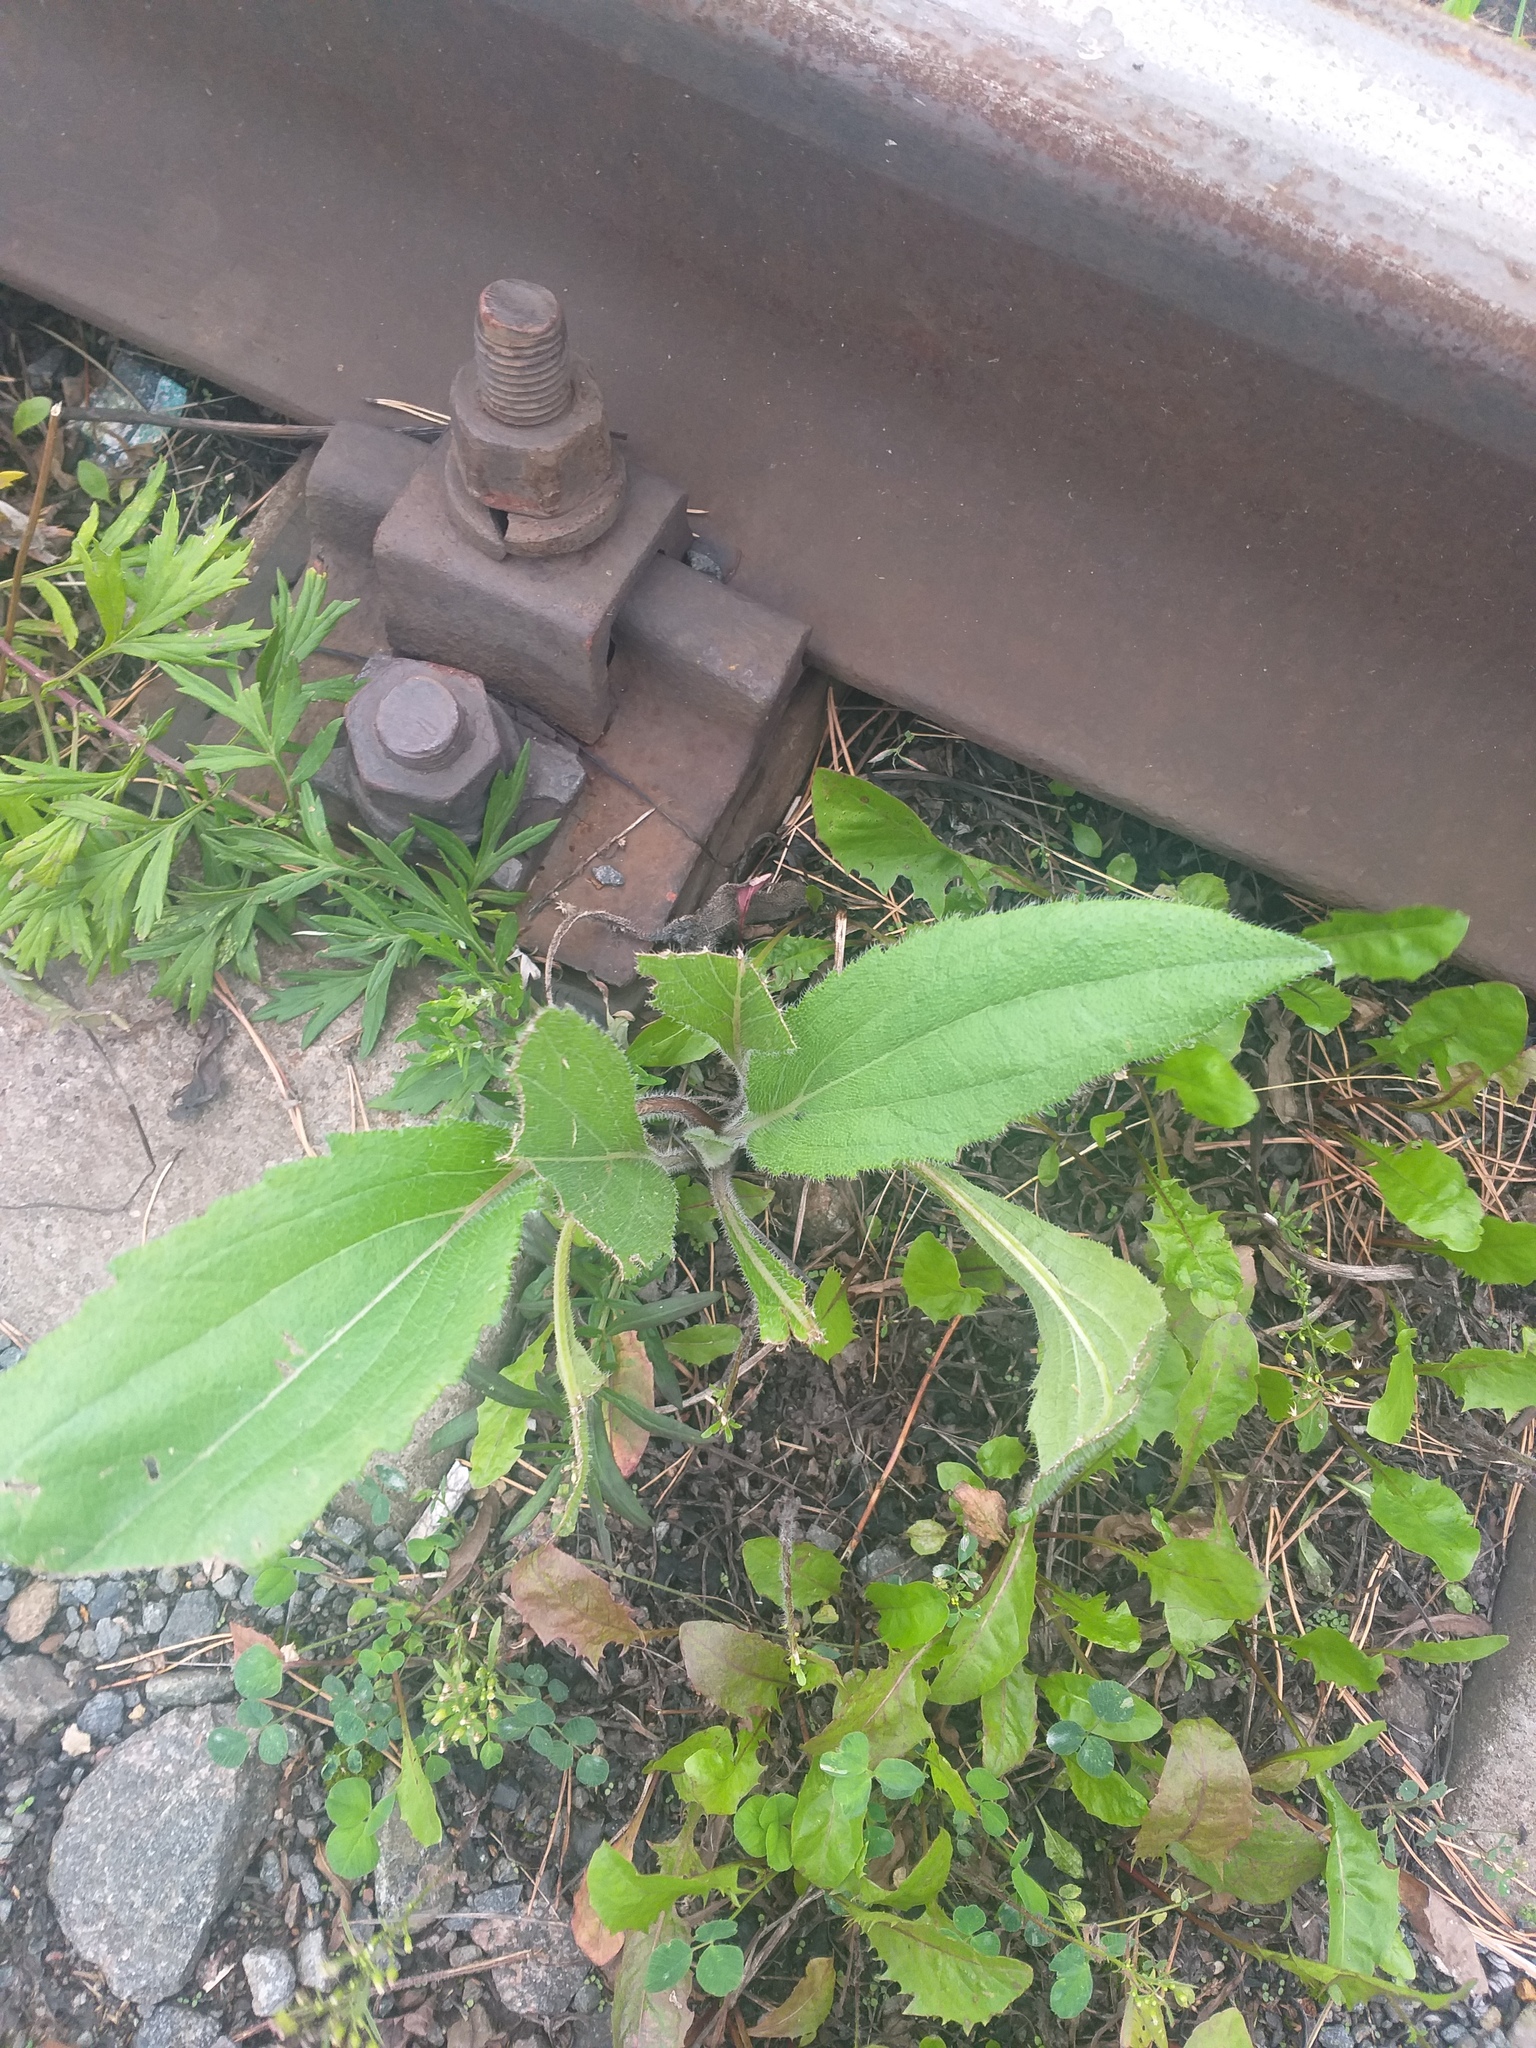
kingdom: Plantae
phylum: Tracheophyta
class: Magnoliopsida
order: Asterales
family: Asteraceae
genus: Rudbeckia
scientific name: Rudbeckia hirta
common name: Black-eyed-susan
